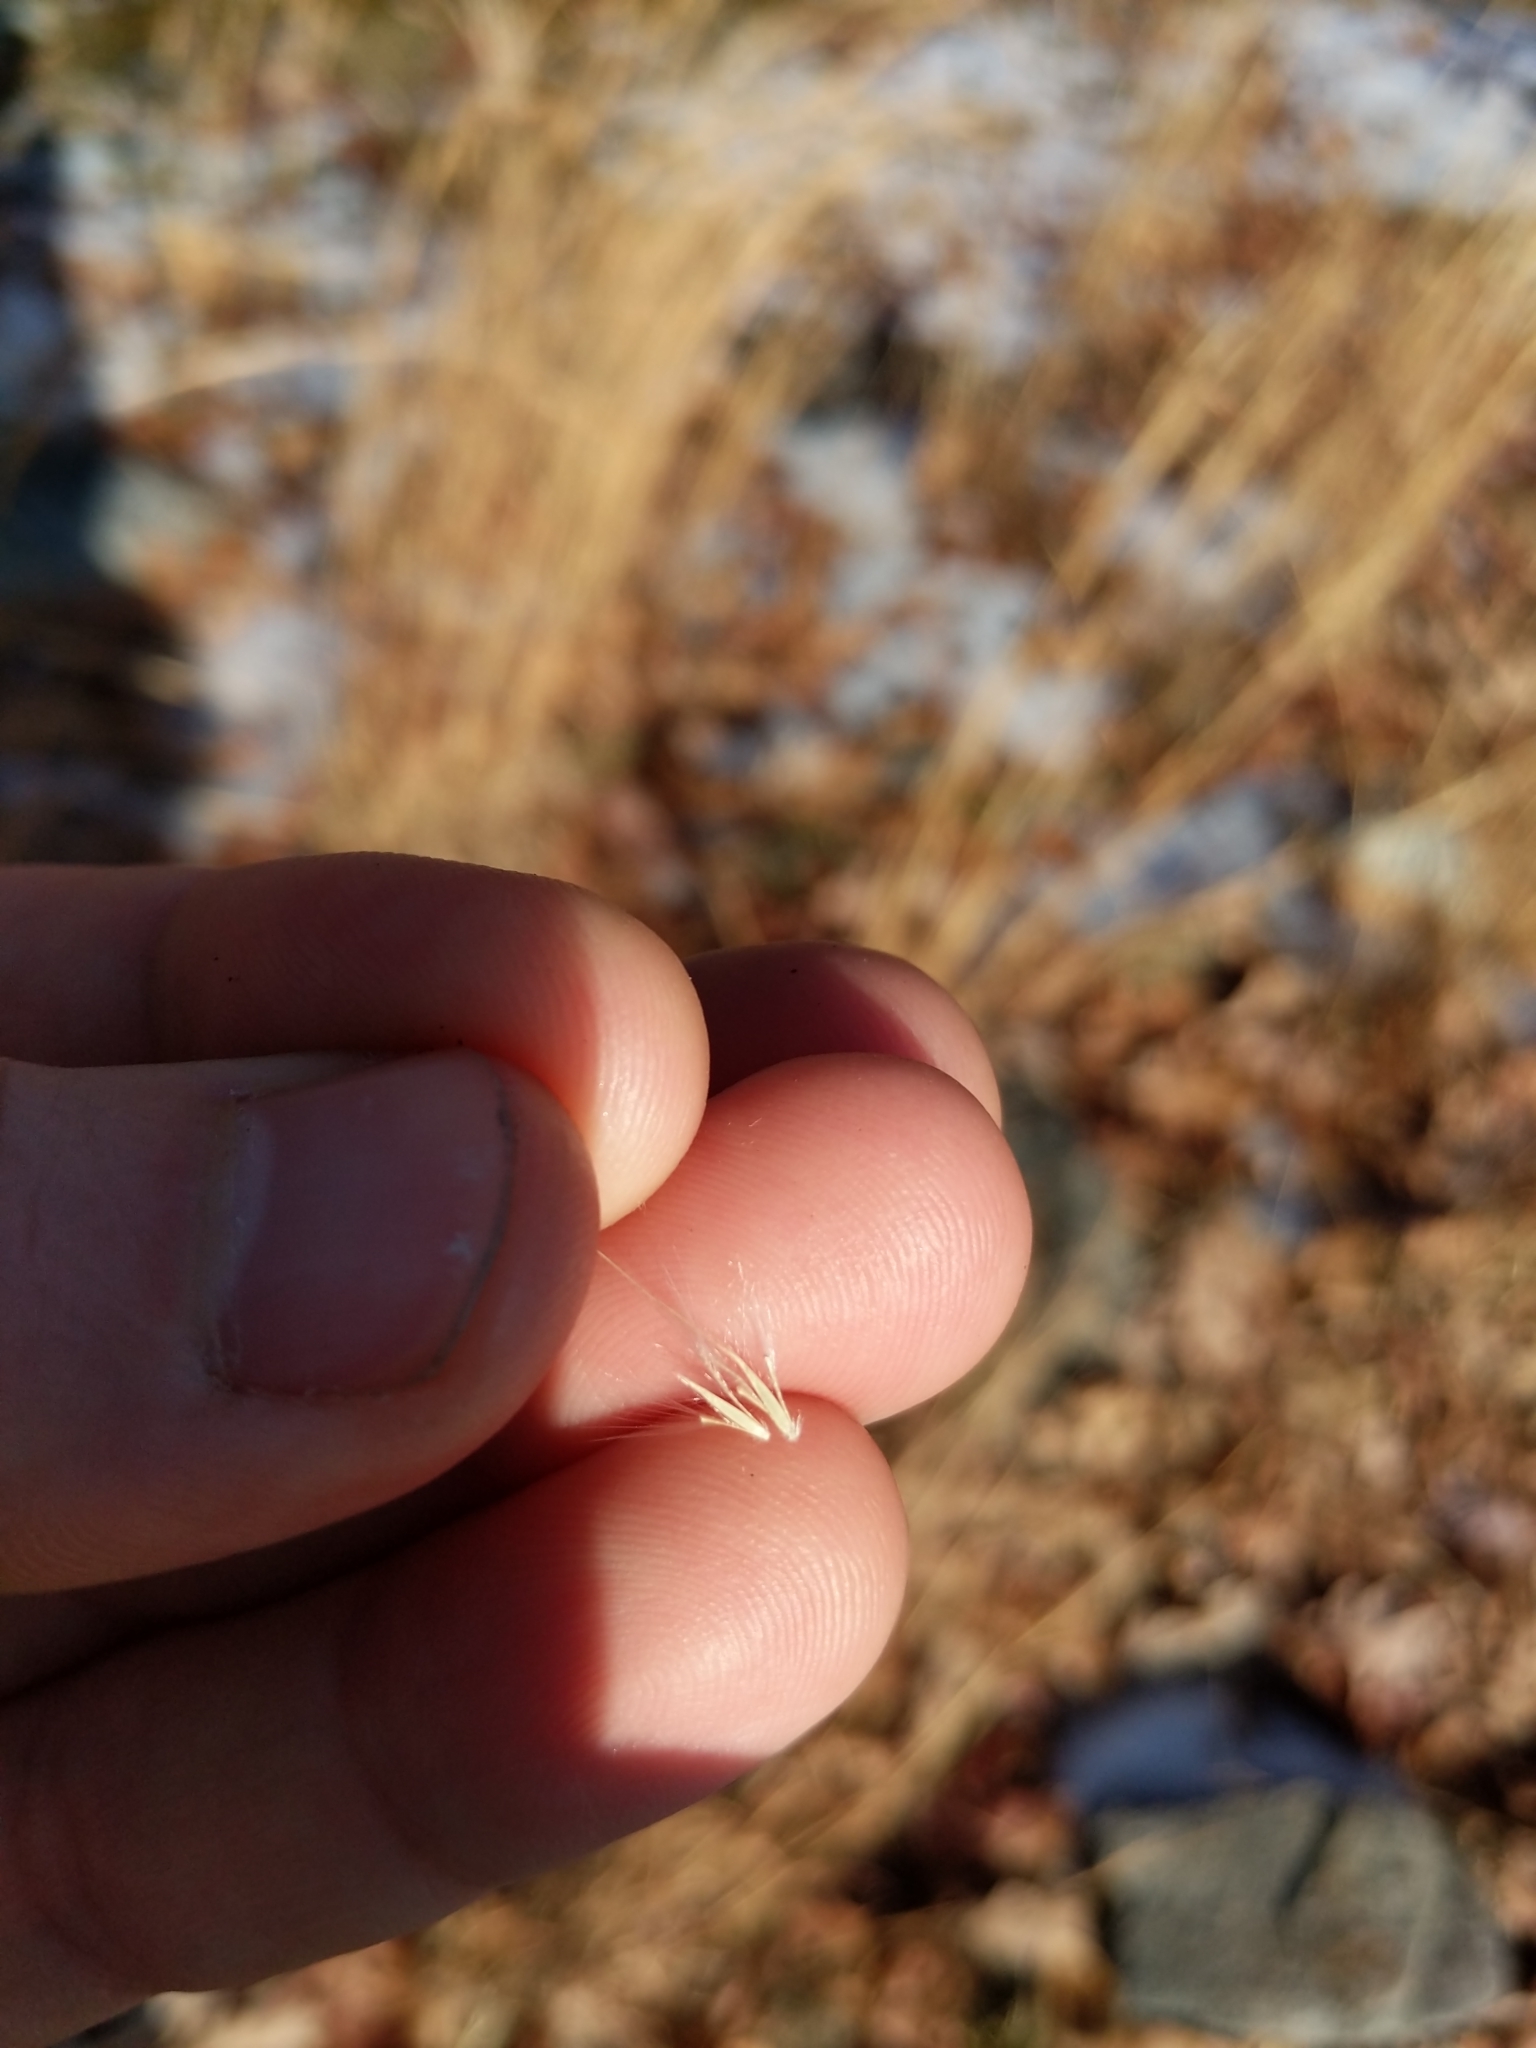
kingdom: Plantae
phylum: Tracheophyta
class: Liliopsida
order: Poales
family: Poaceae
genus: Andropogon
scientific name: Andropogon virginicus
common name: Broomsedge bluestem
